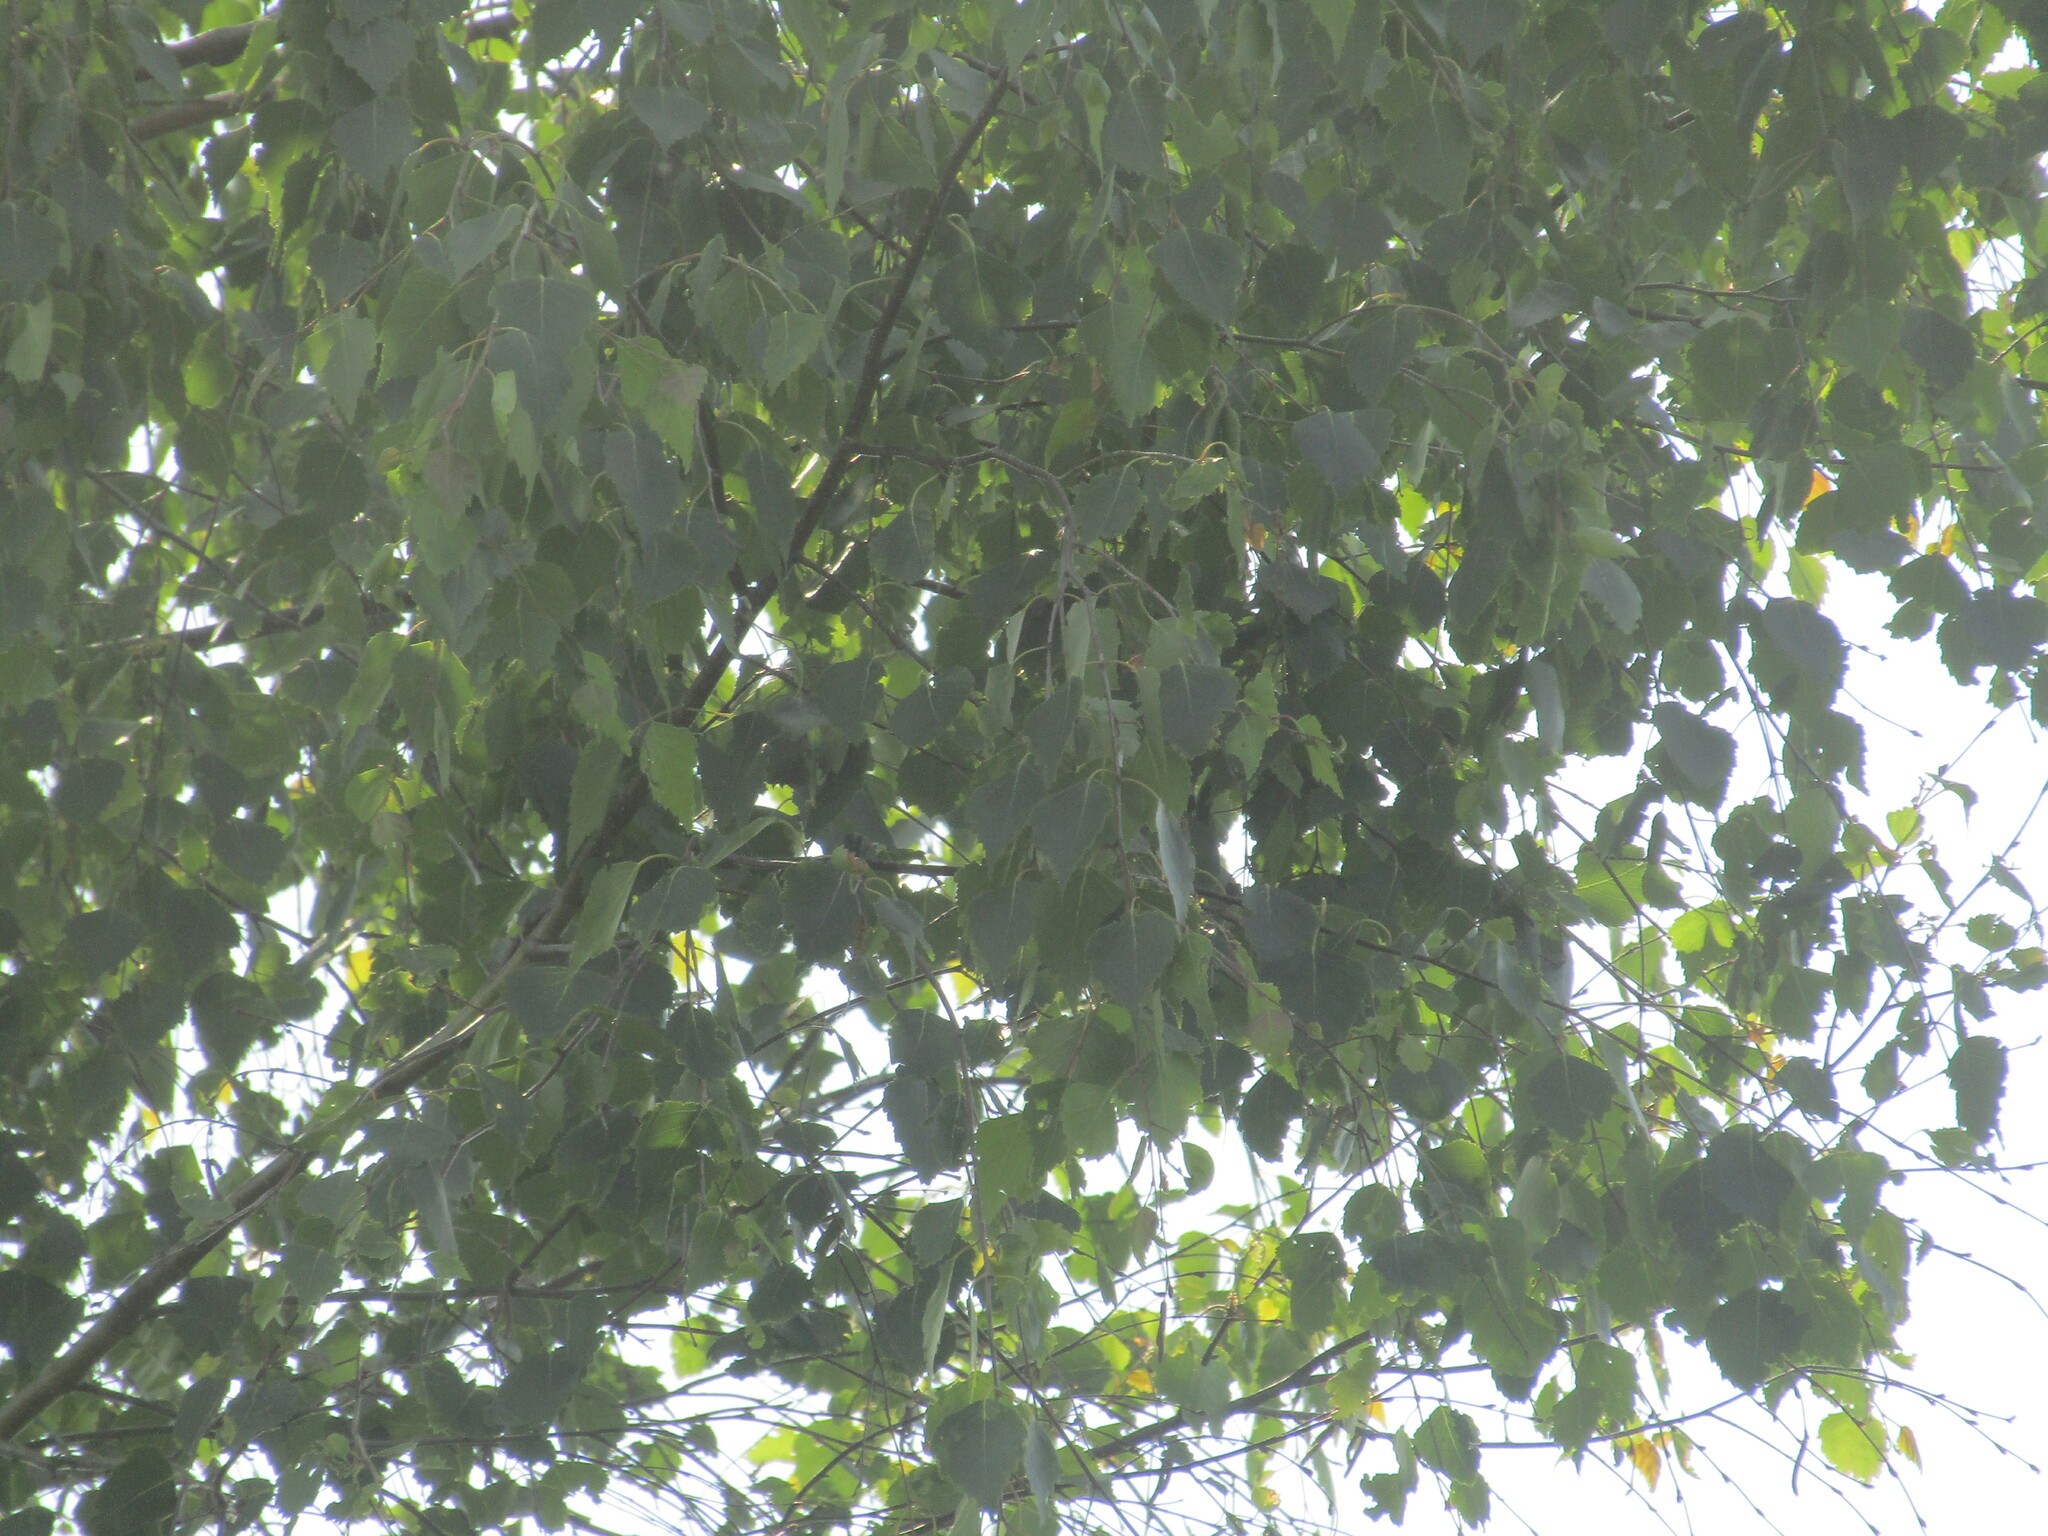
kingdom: Plantae
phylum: Tracheophyta
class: Magnoliopsida
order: Fagales
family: Betulaceae
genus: Betula
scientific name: Betula pendula
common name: Silver birch
